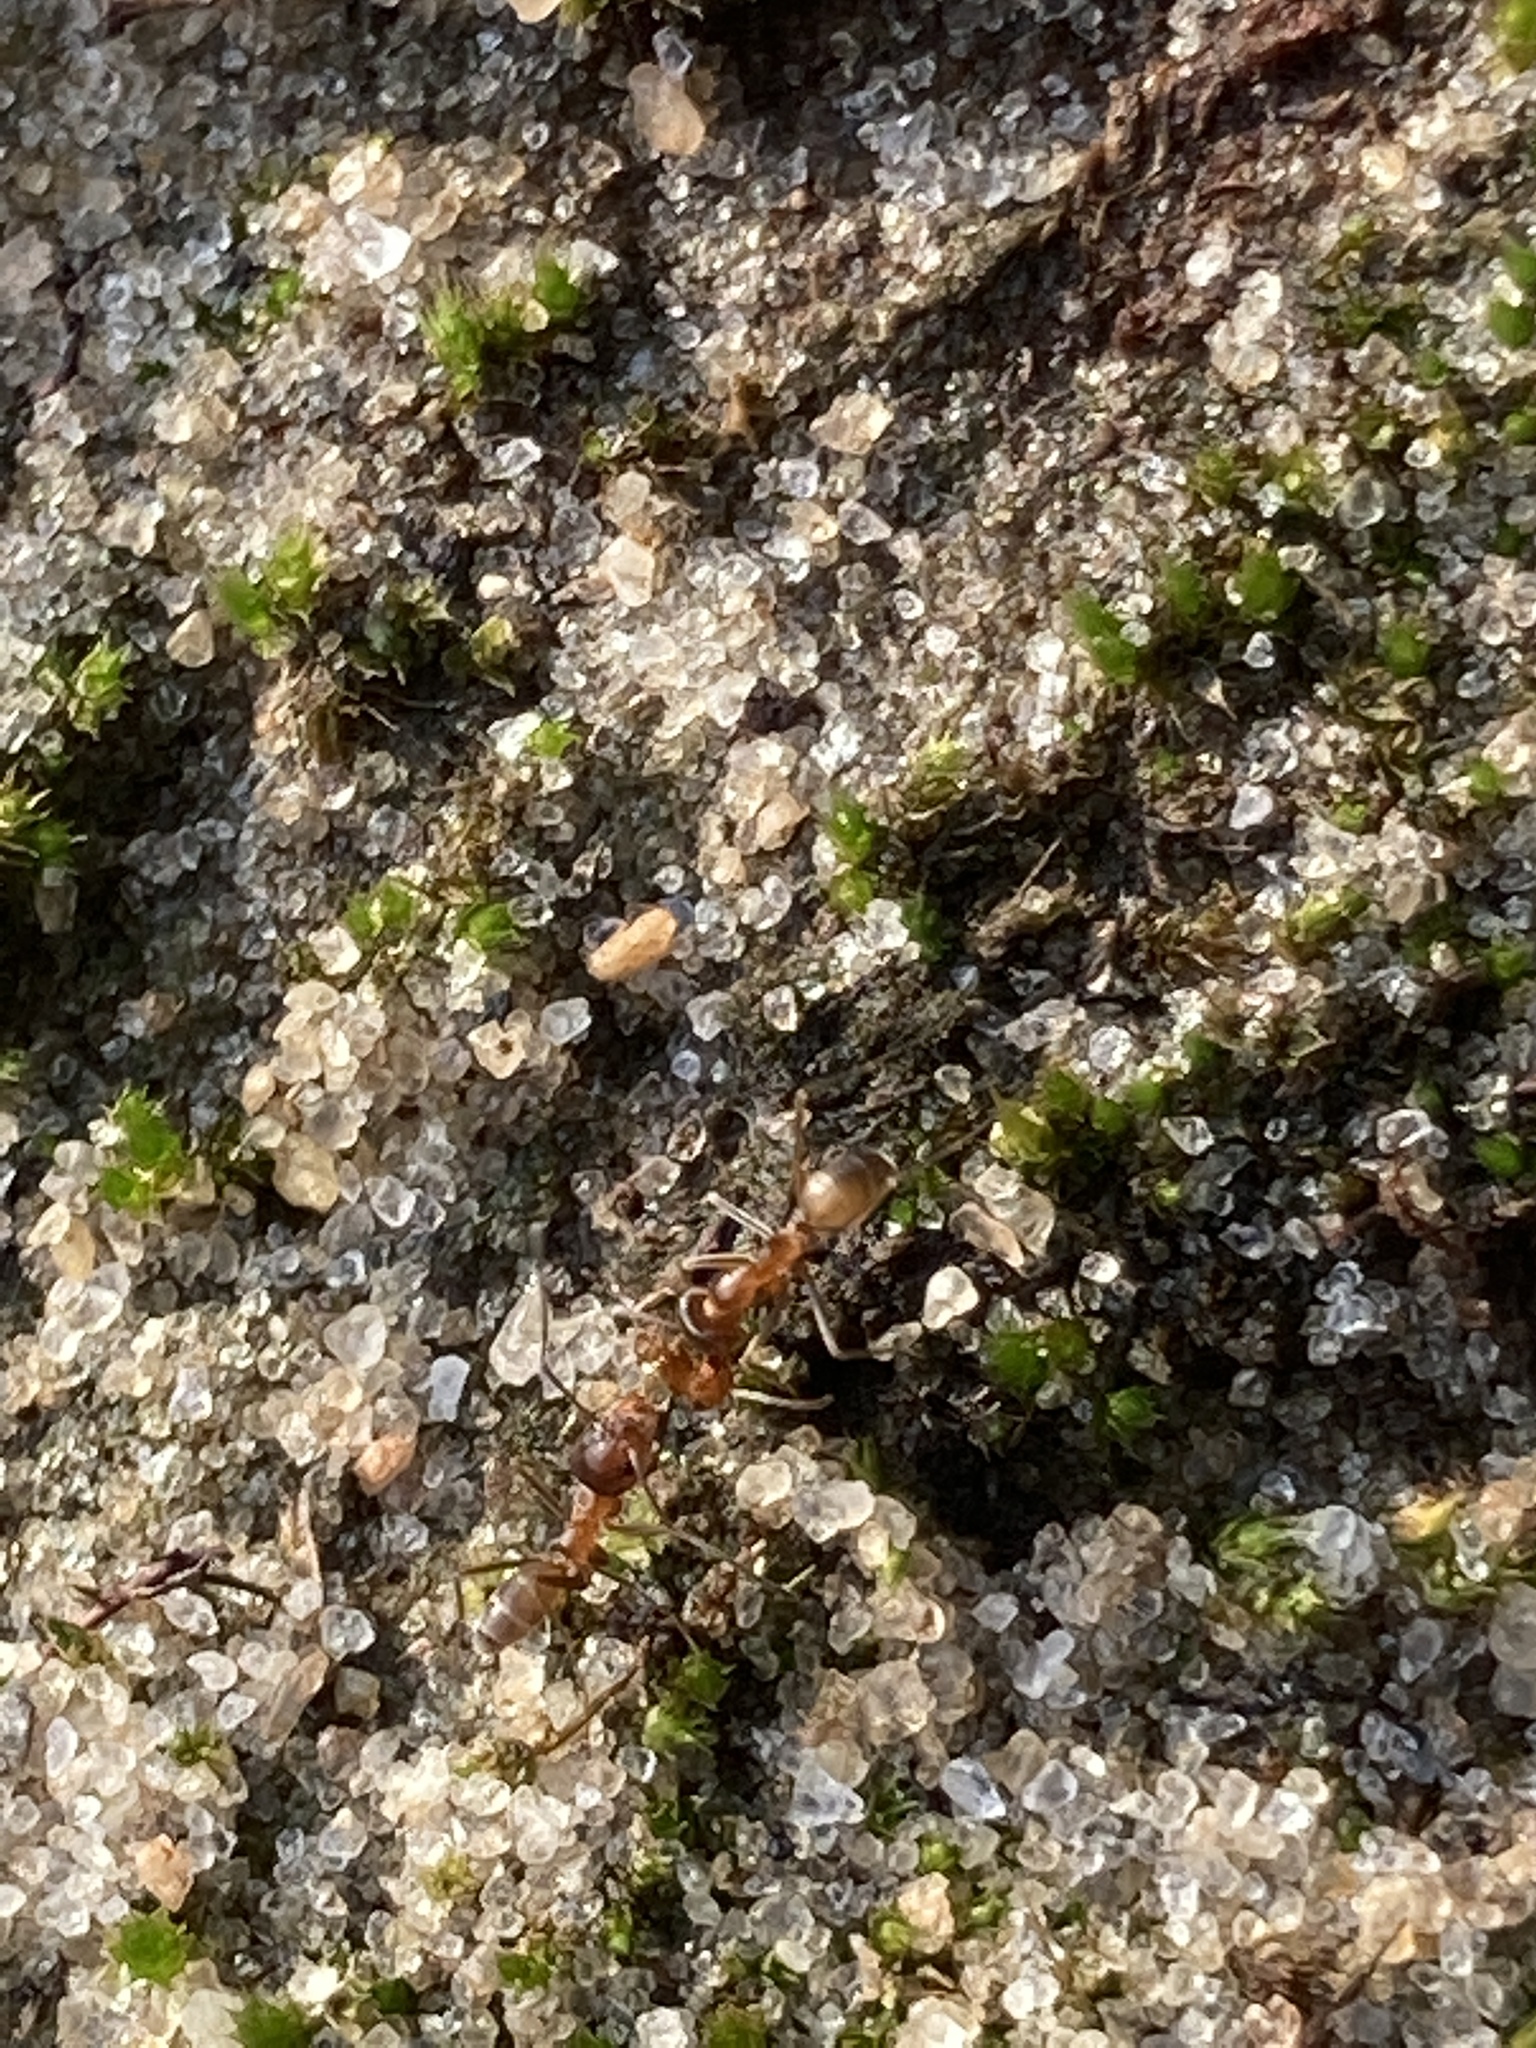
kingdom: Animalia
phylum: Arthropoda
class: Insecta
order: Hymenoptera
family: Formicidae
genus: Dorymyrmex
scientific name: Dorymyrmex bureni
